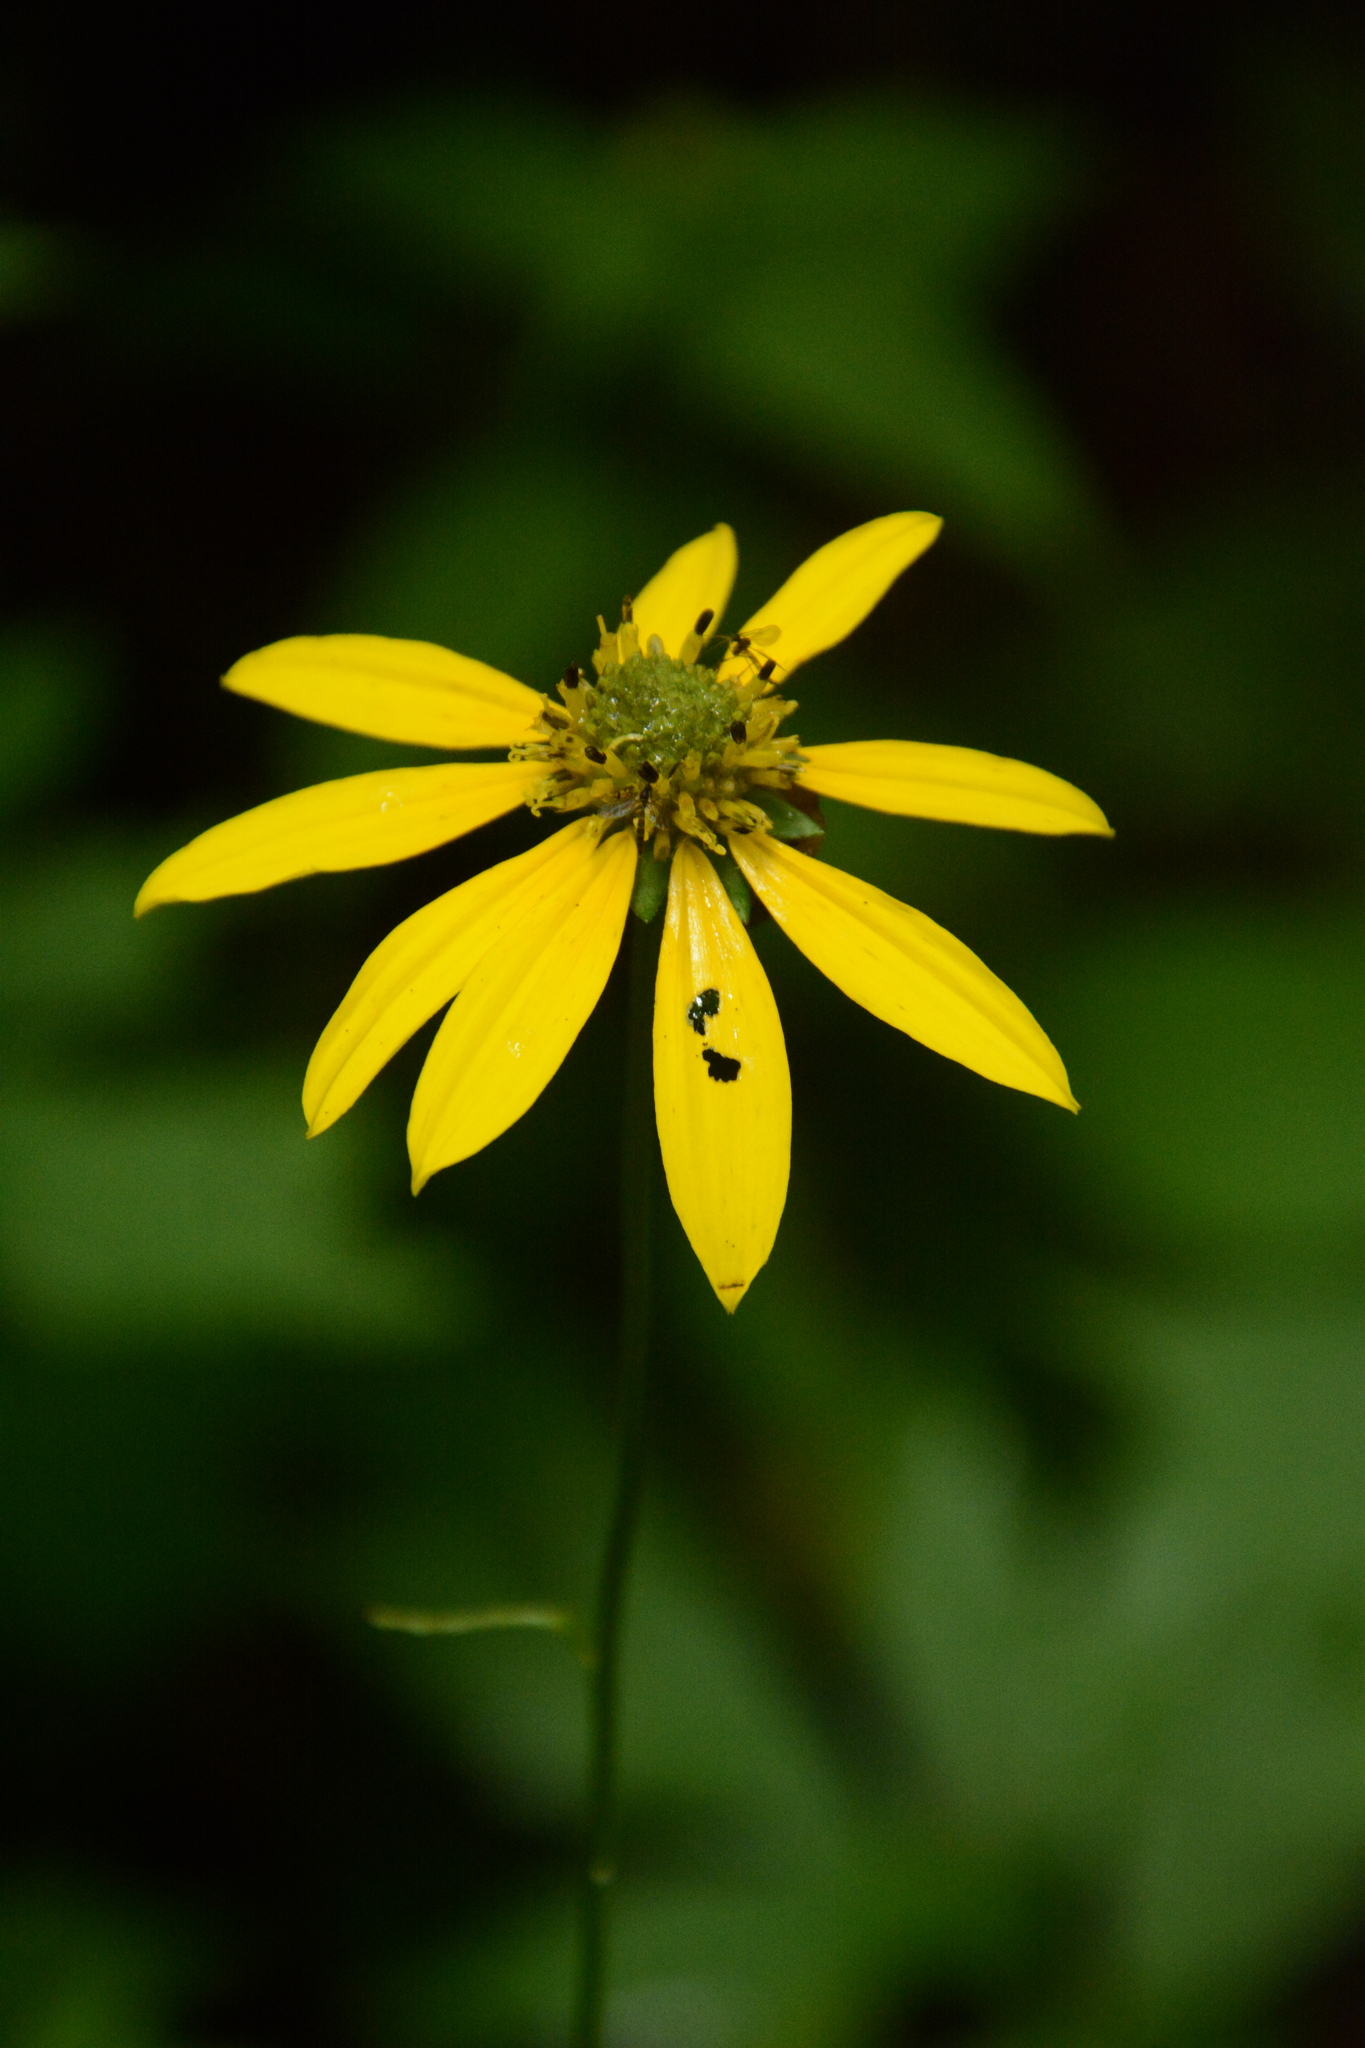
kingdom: Plantae
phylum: Tracheophyta
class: Magnoliopsida
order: Lamiales
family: Phrymaceae
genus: Phryma
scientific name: Phryma leptostachya
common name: American lopseed
